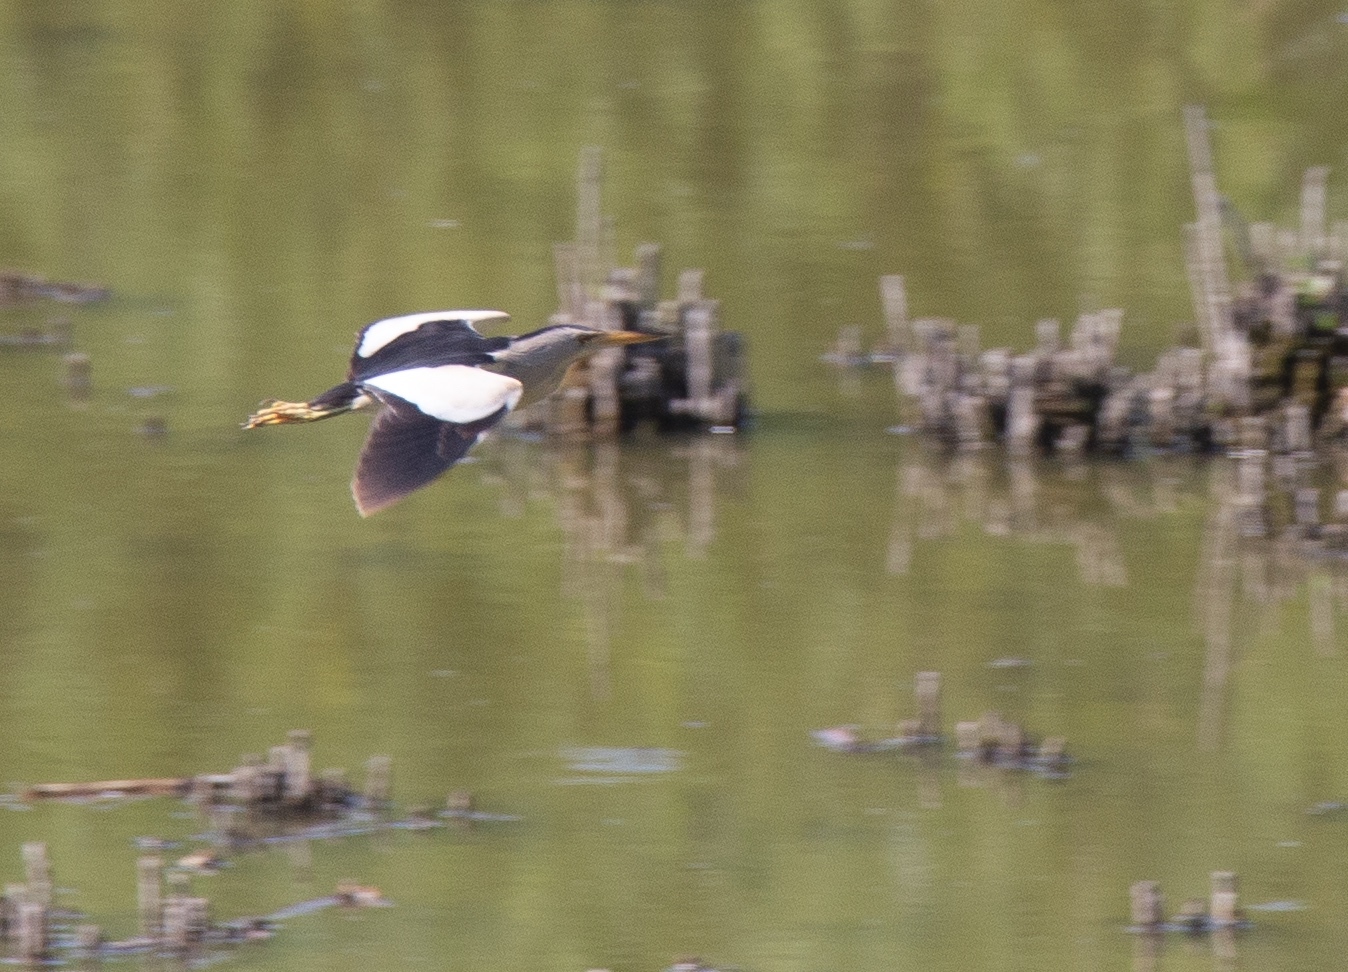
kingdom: Animalia
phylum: Chordata
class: Aves
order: Pelecaniformes
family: Ardeidae
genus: Ixobrychus
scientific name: Ixobrychus minutus
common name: Little bittern
